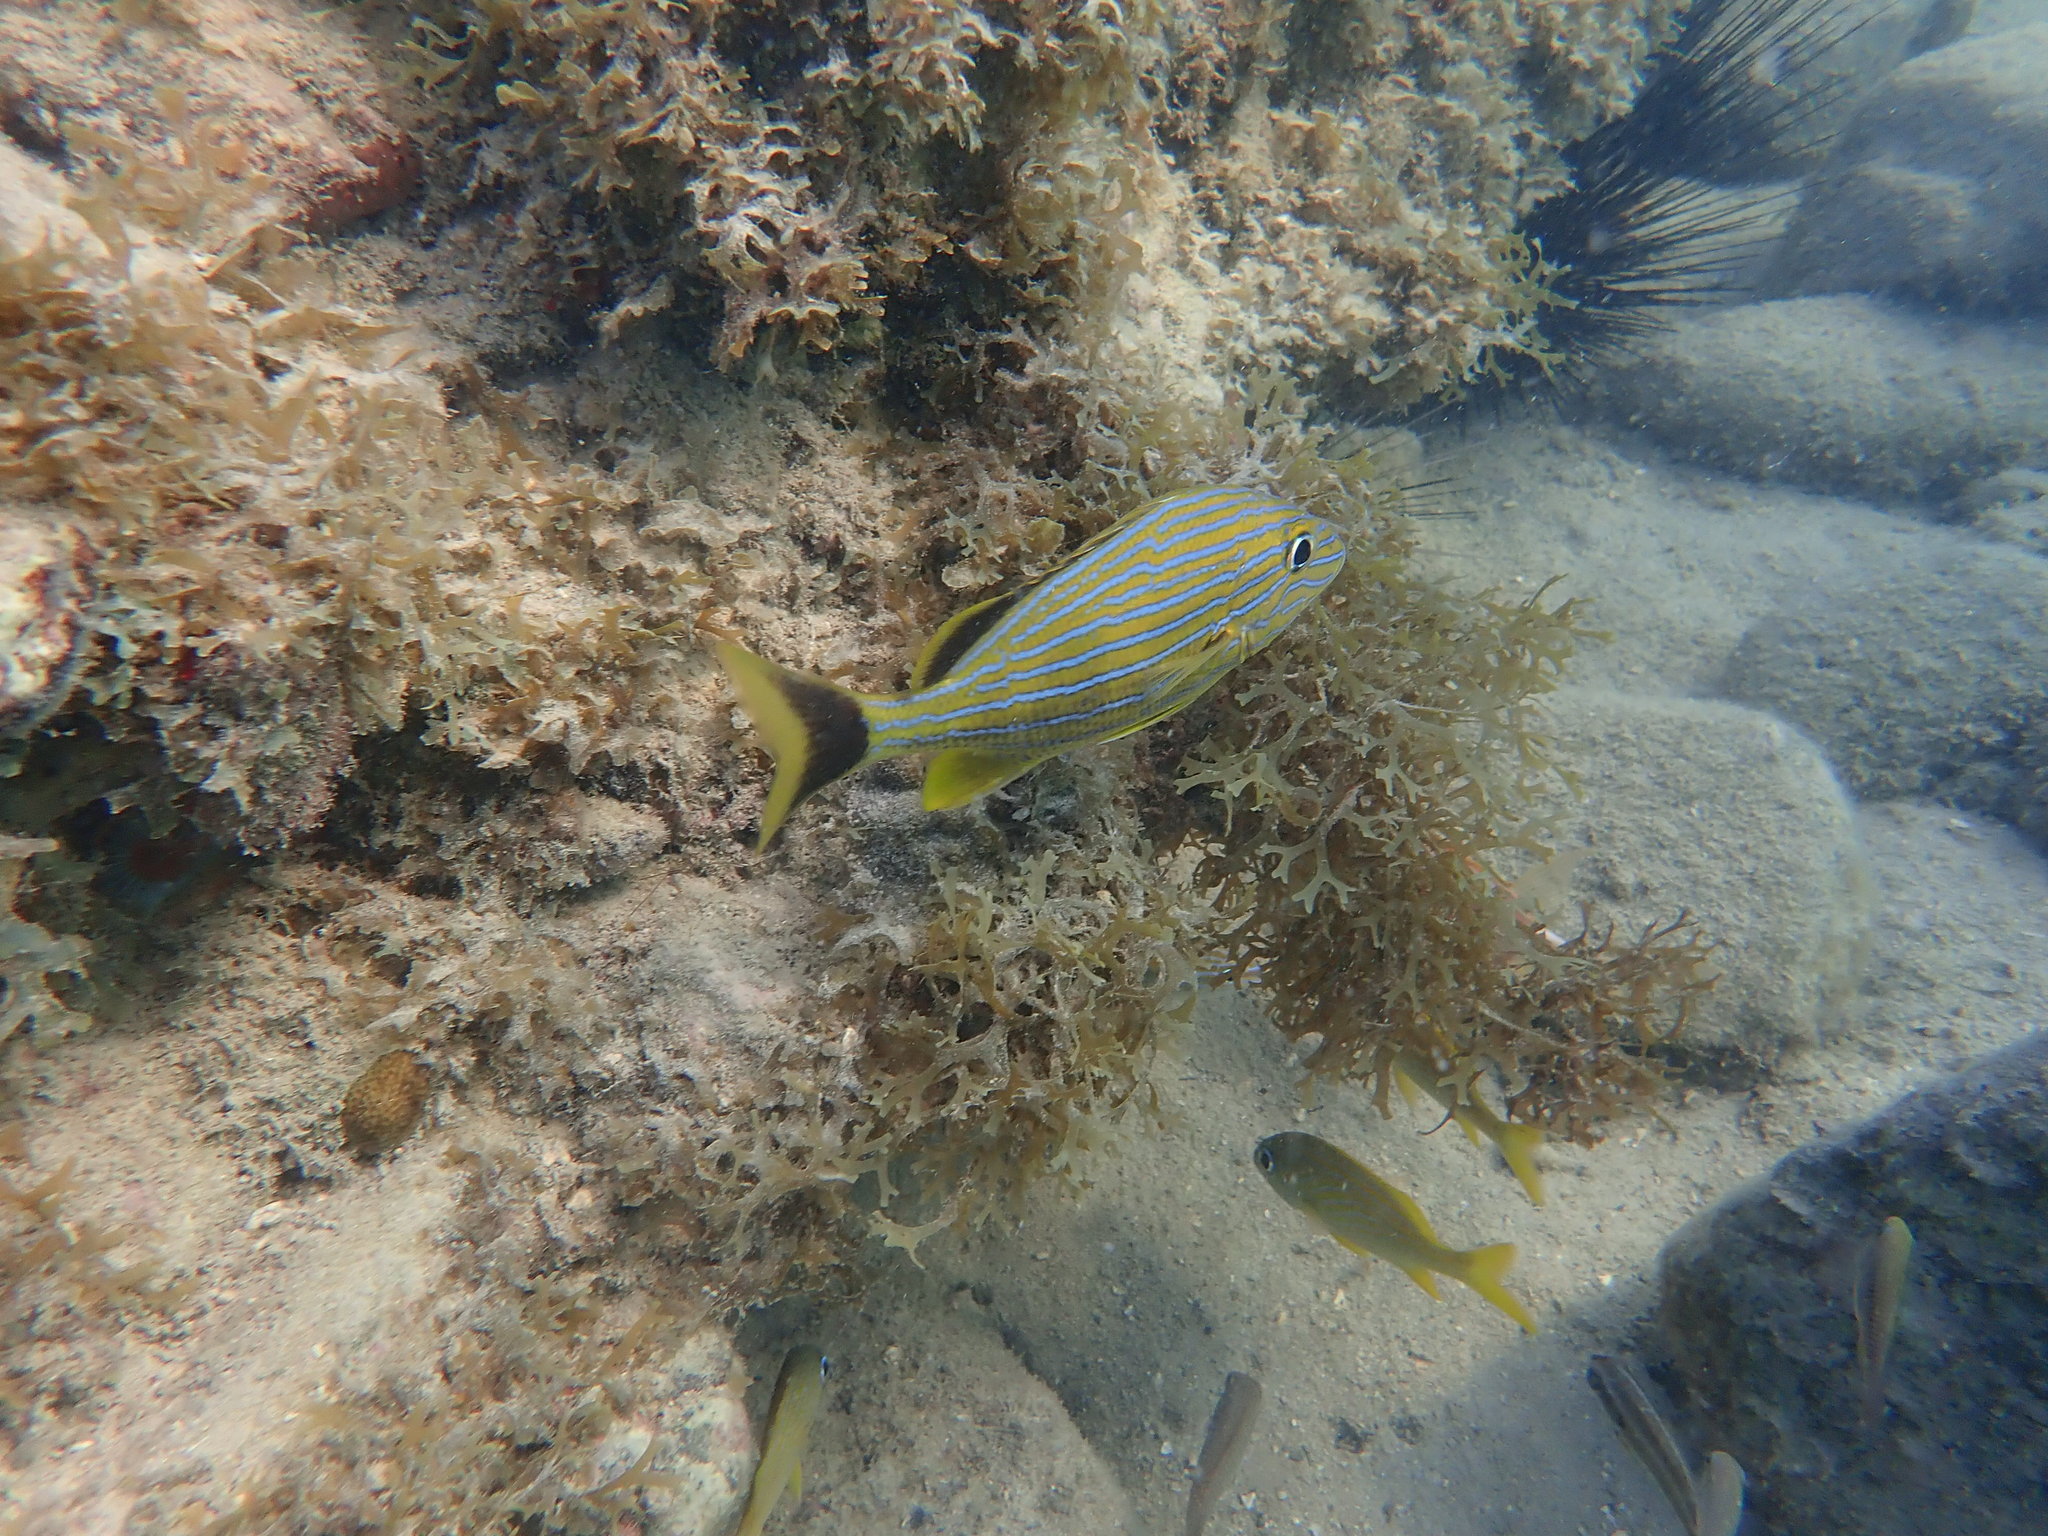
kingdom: Animalia
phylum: Chordata
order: Perciformes
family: Haemulidae
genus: Haemulon
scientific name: Haemulon sciurus
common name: Bluestriped grunt
